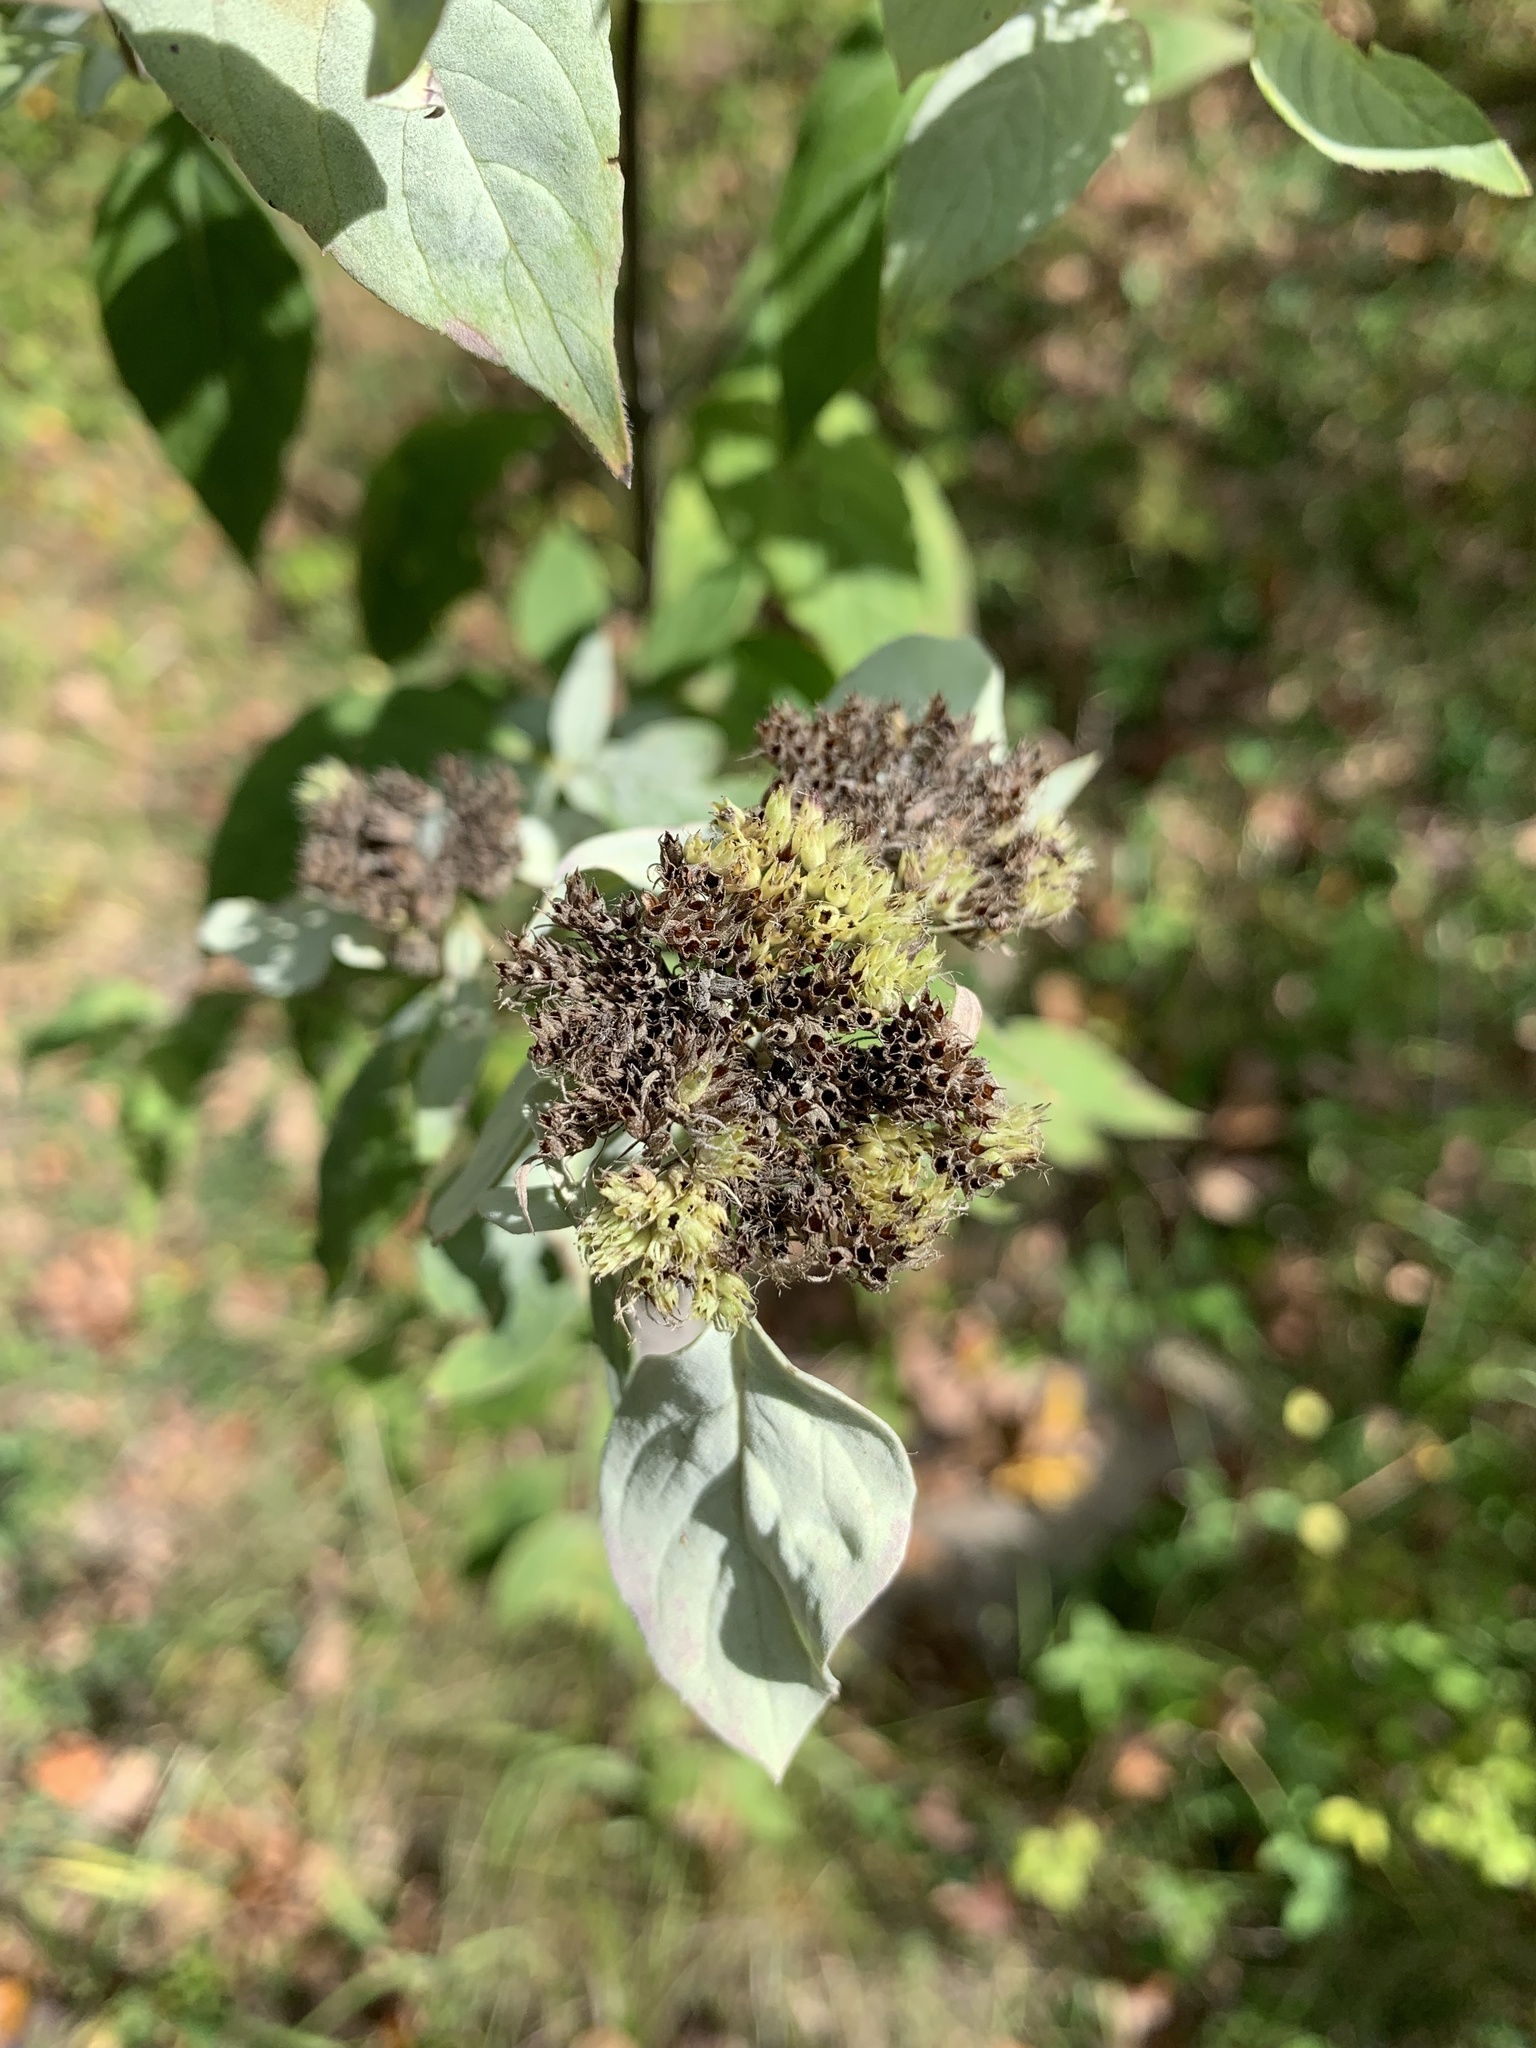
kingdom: Plantae
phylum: Tracheophyta
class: Magnoliopsida
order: Lamiales
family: Lamiaceae
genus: Pycnanthemum
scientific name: Pycnanthemum loomisii
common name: Loomis's mountain-mint
